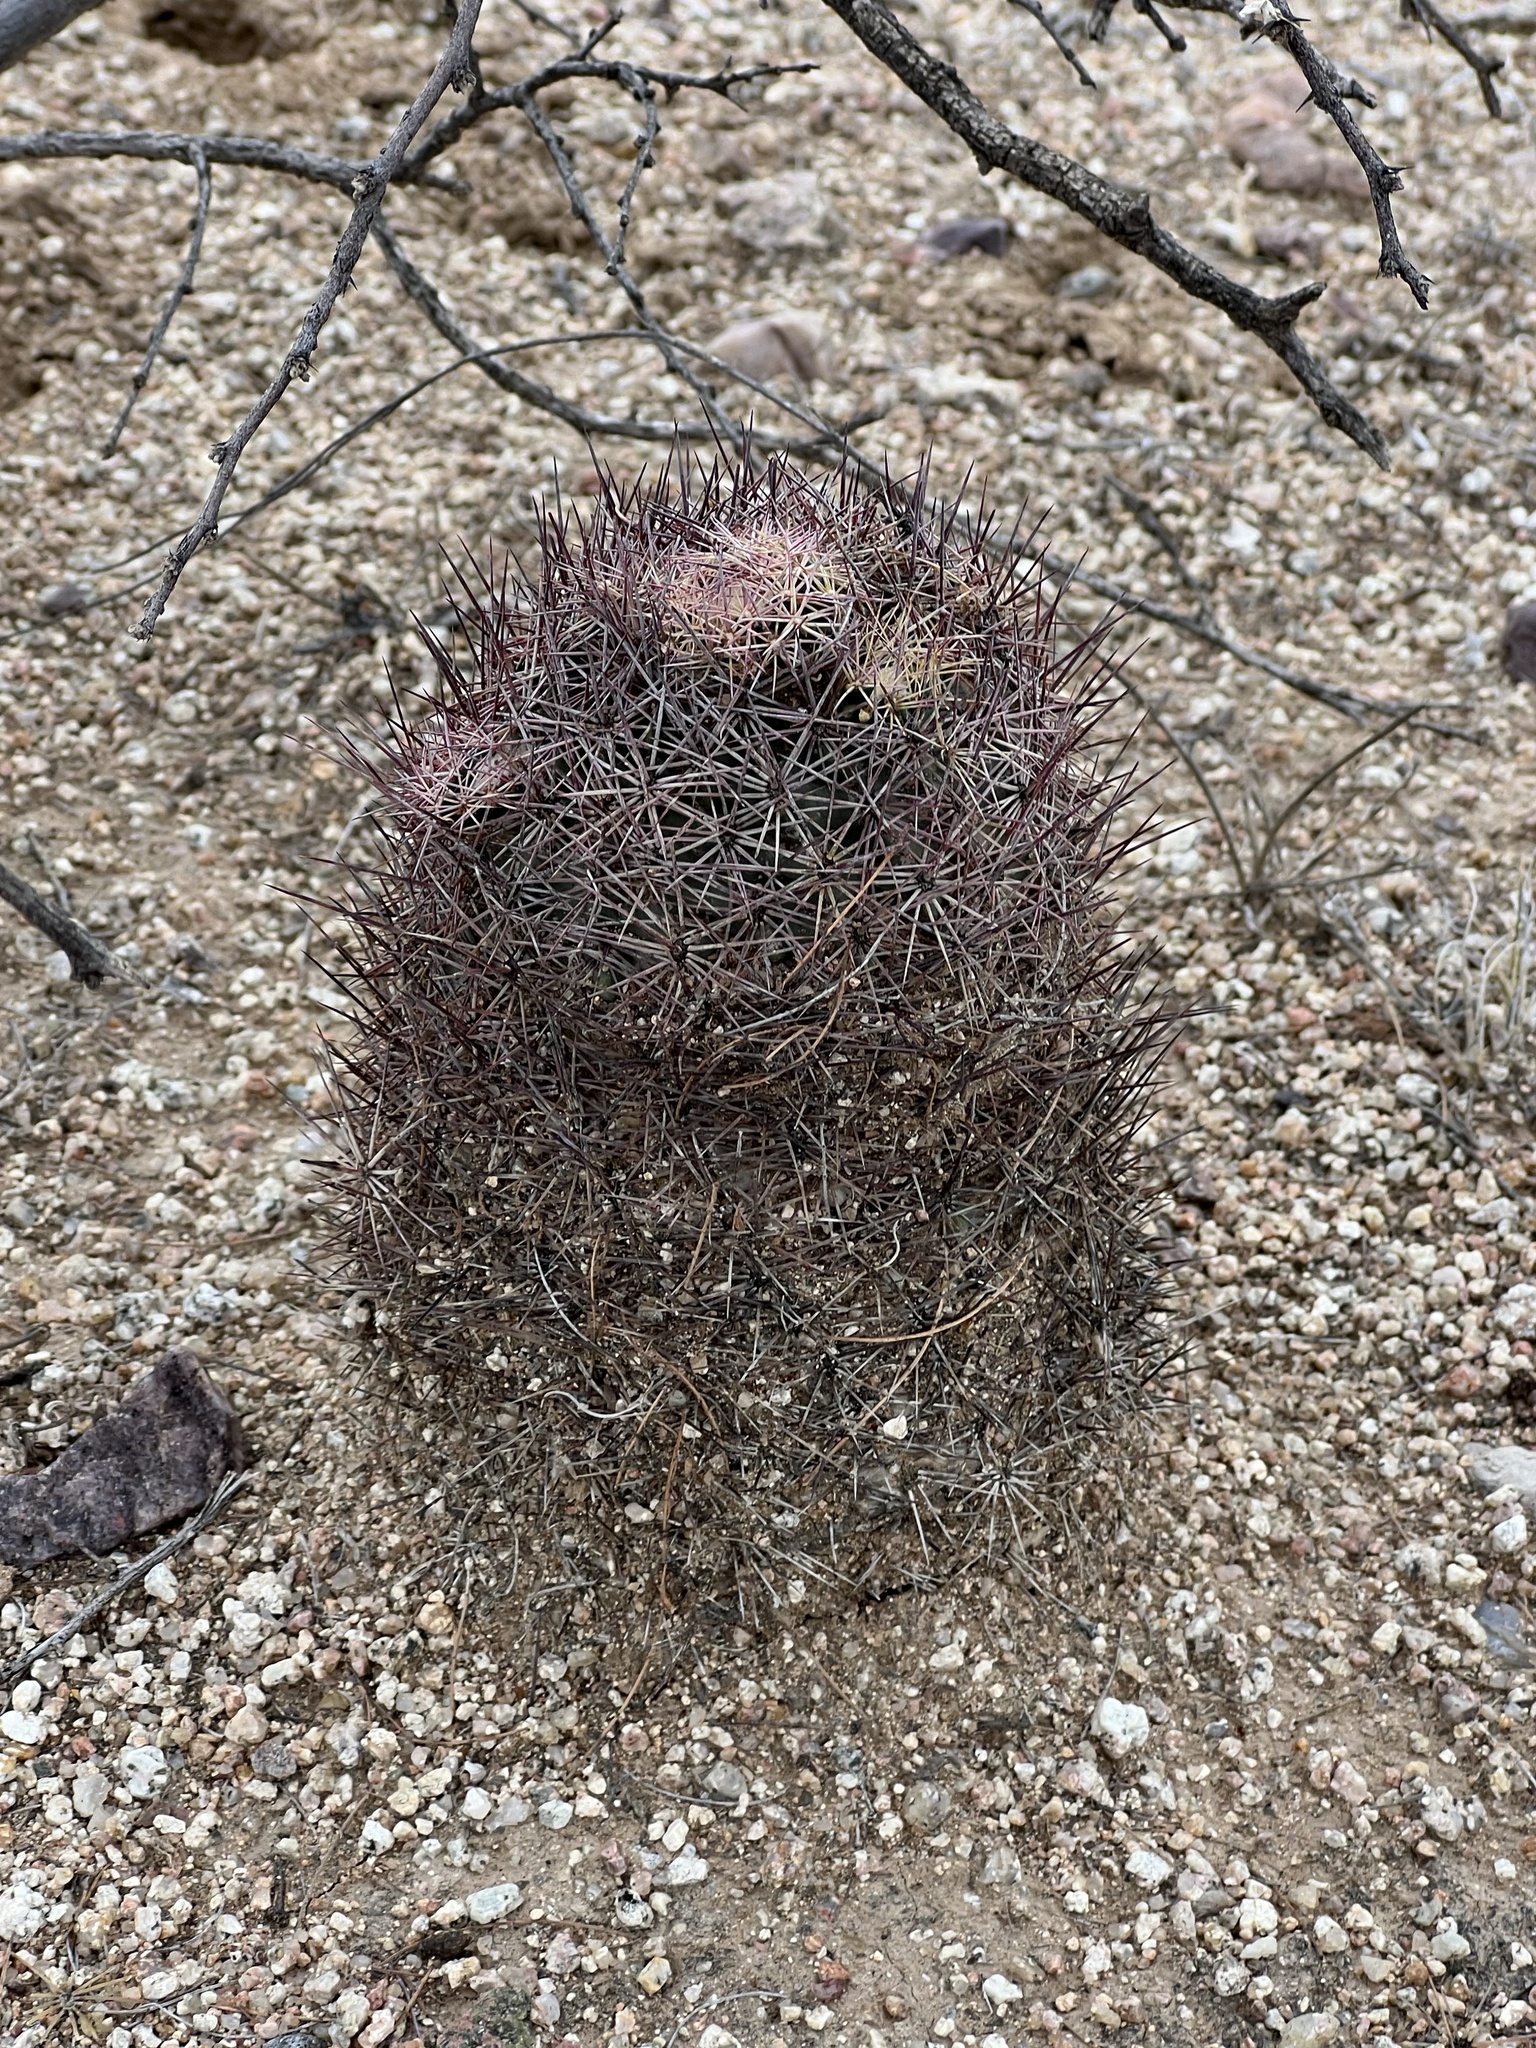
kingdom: Plantae
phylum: Tracheophyta
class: Magnoliopsida
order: Caryophyllales
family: Cactaceae
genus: Sclerocactus
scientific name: Sclerocactus johnsonii
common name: Eight-spine fishhook cactus
